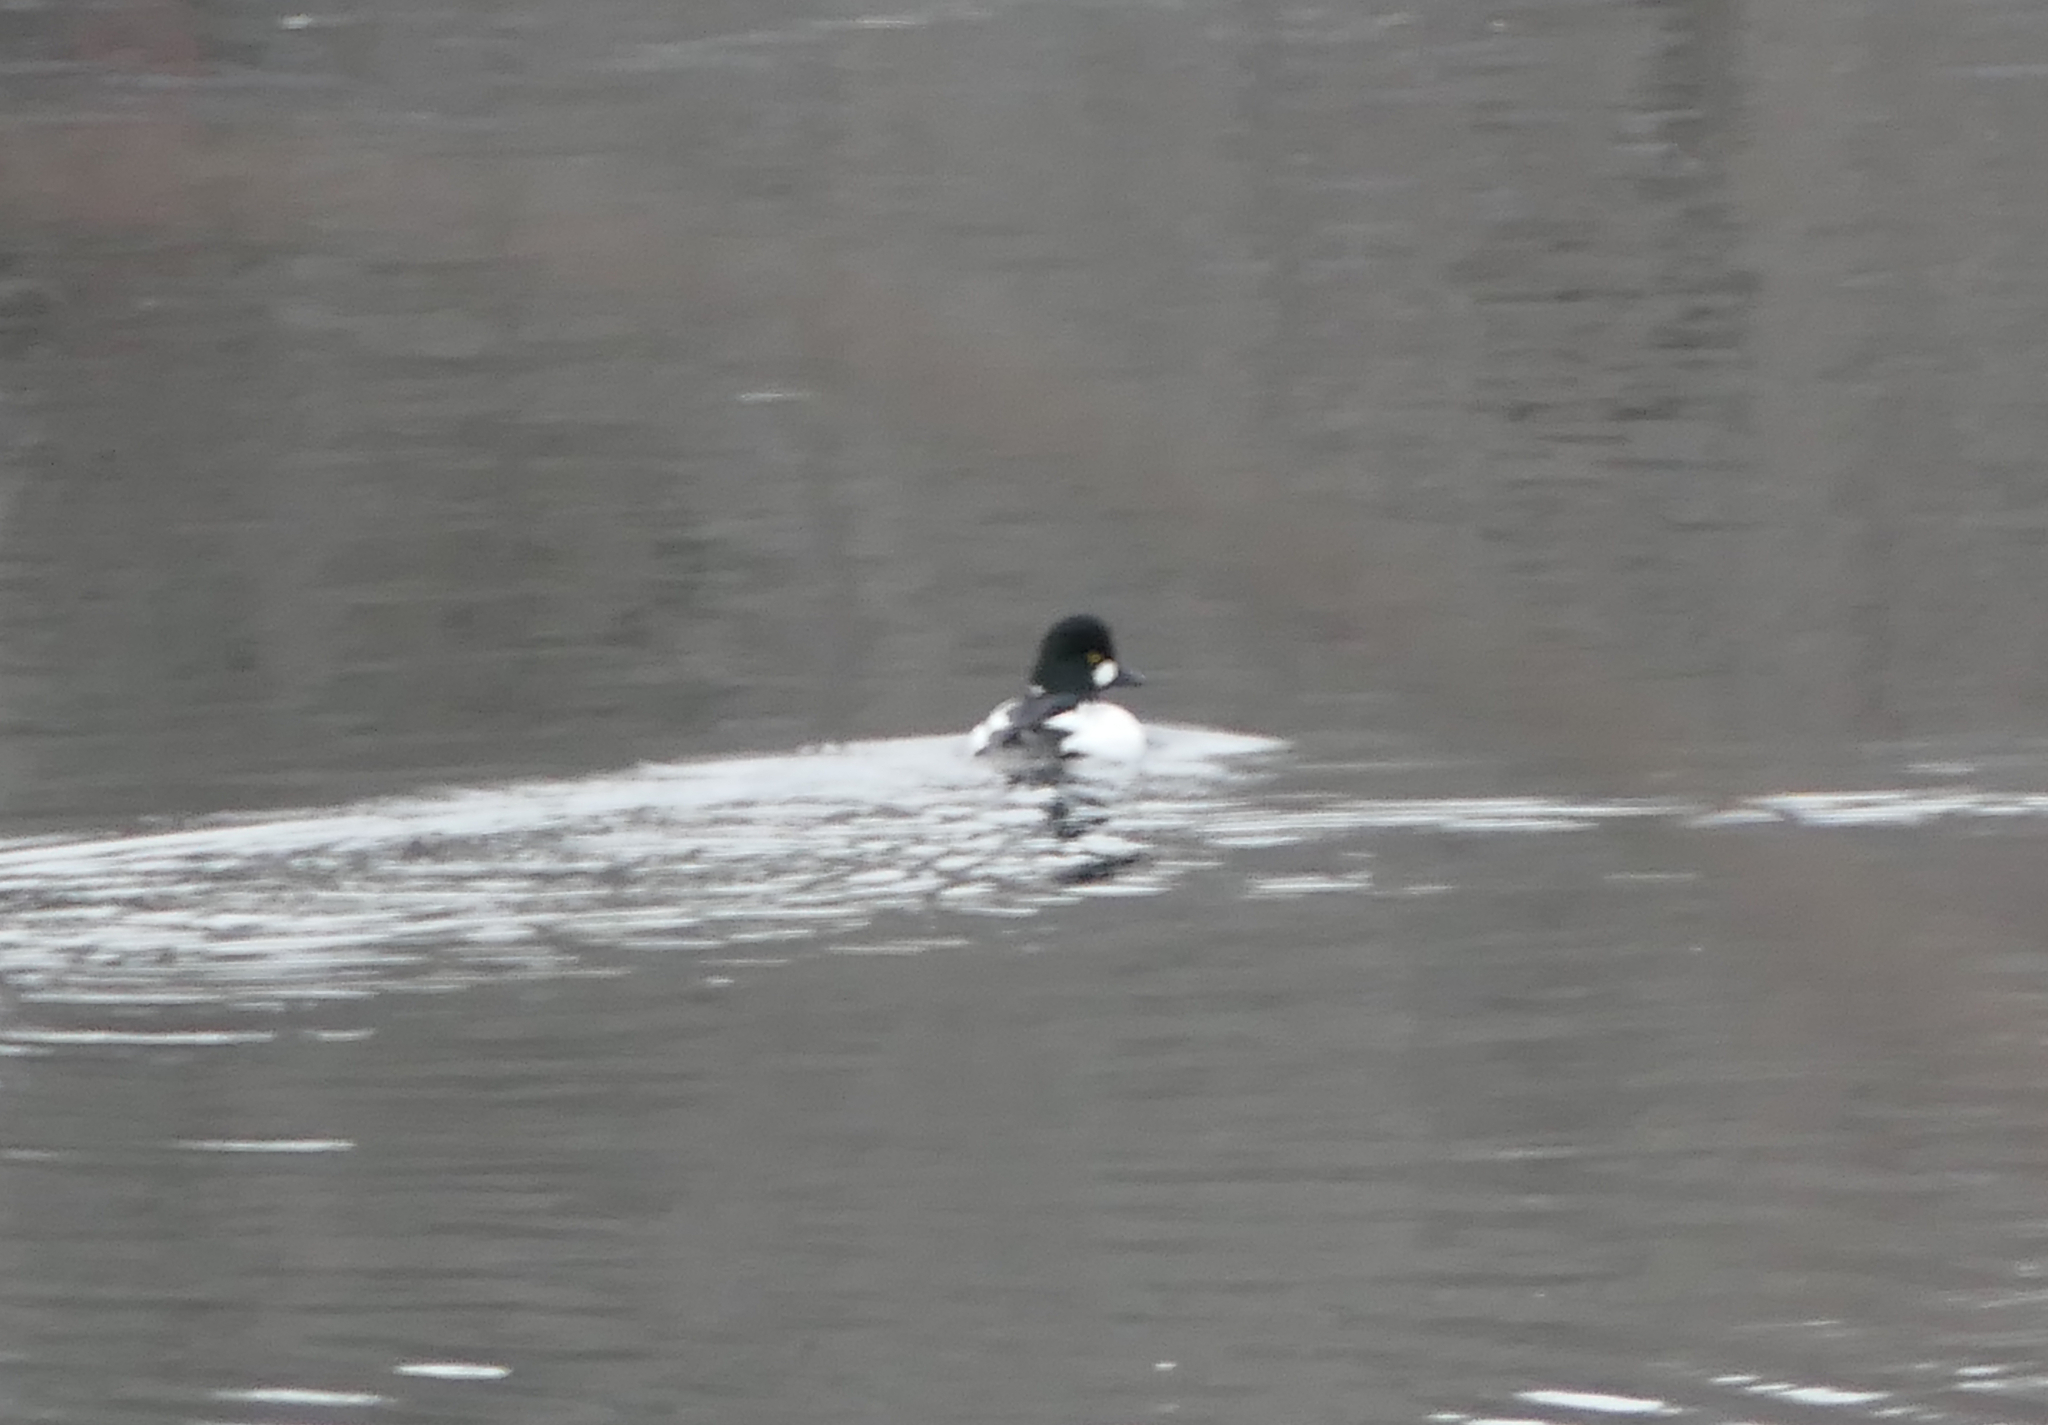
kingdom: Animalia
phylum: Chordata
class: Aves
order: Anseriformes
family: Anatidae
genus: Bucephala
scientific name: Bucephala clangula
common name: Common goldeneye
